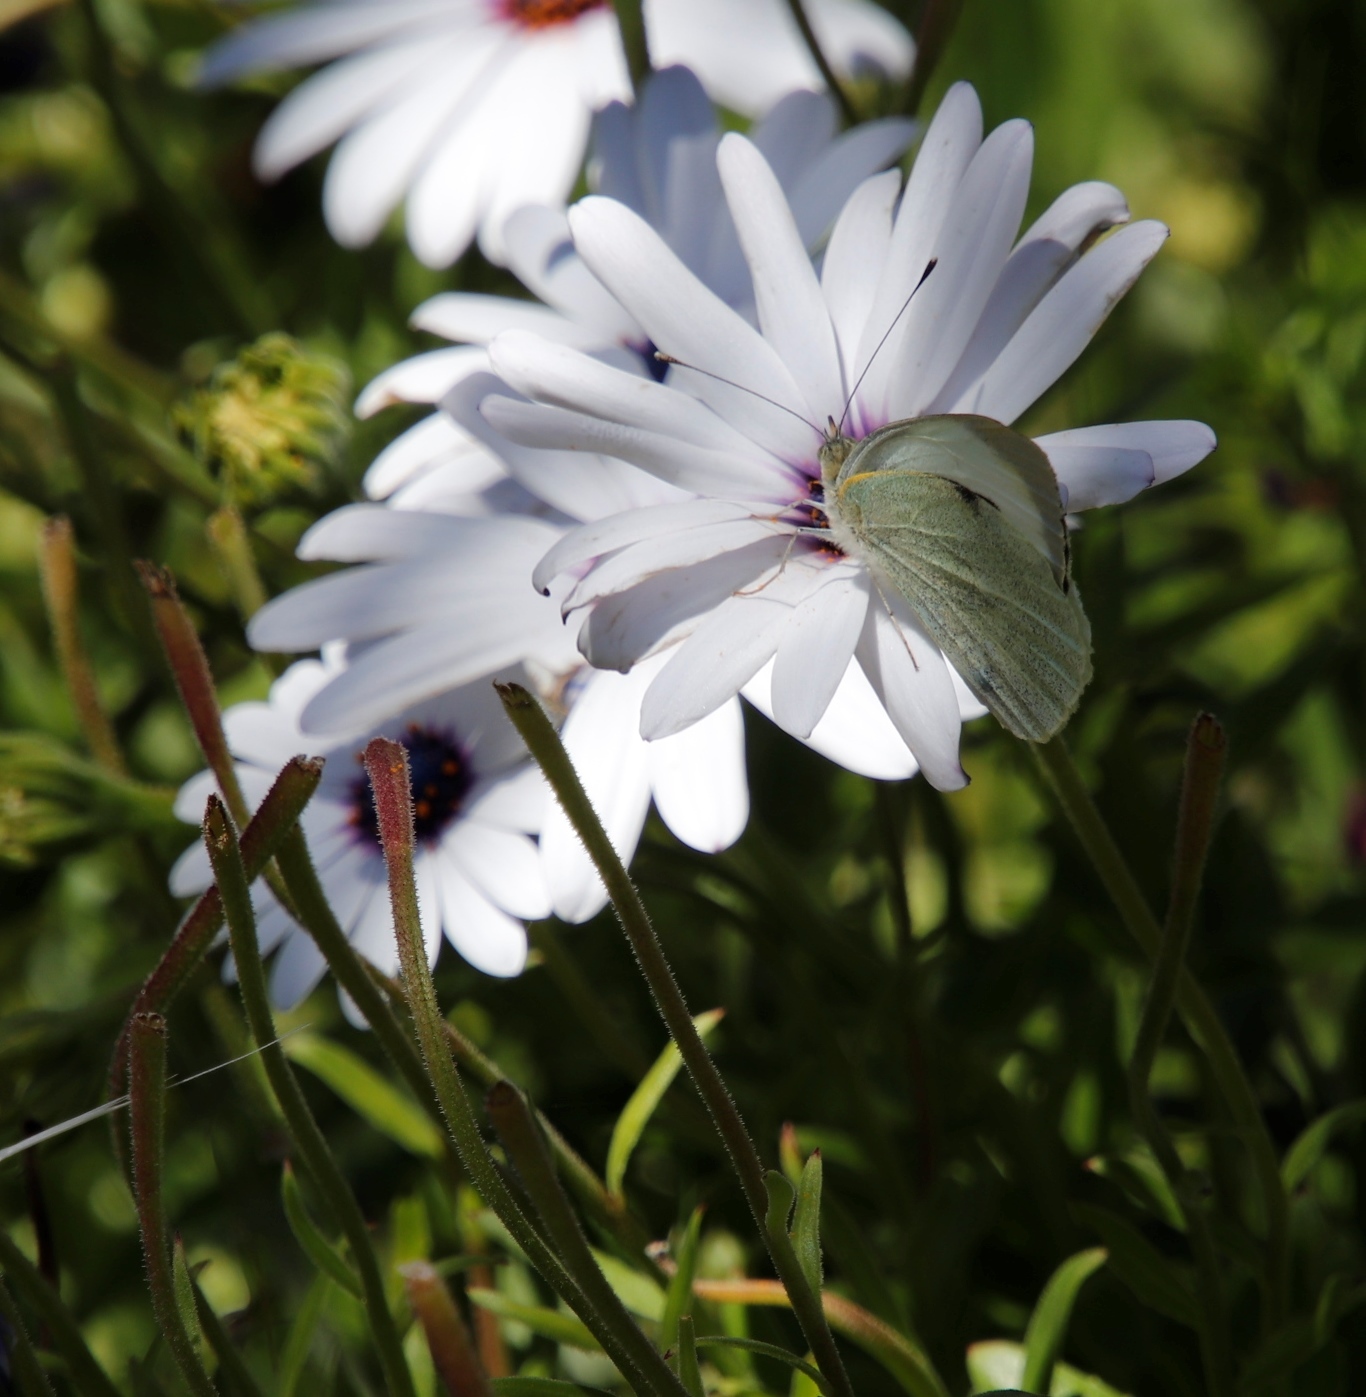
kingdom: Animalia
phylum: Arthropoda
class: Insecta
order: Lepidoptera
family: Pieridae
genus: Pieris
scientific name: Pieris brassicae
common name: Large white
